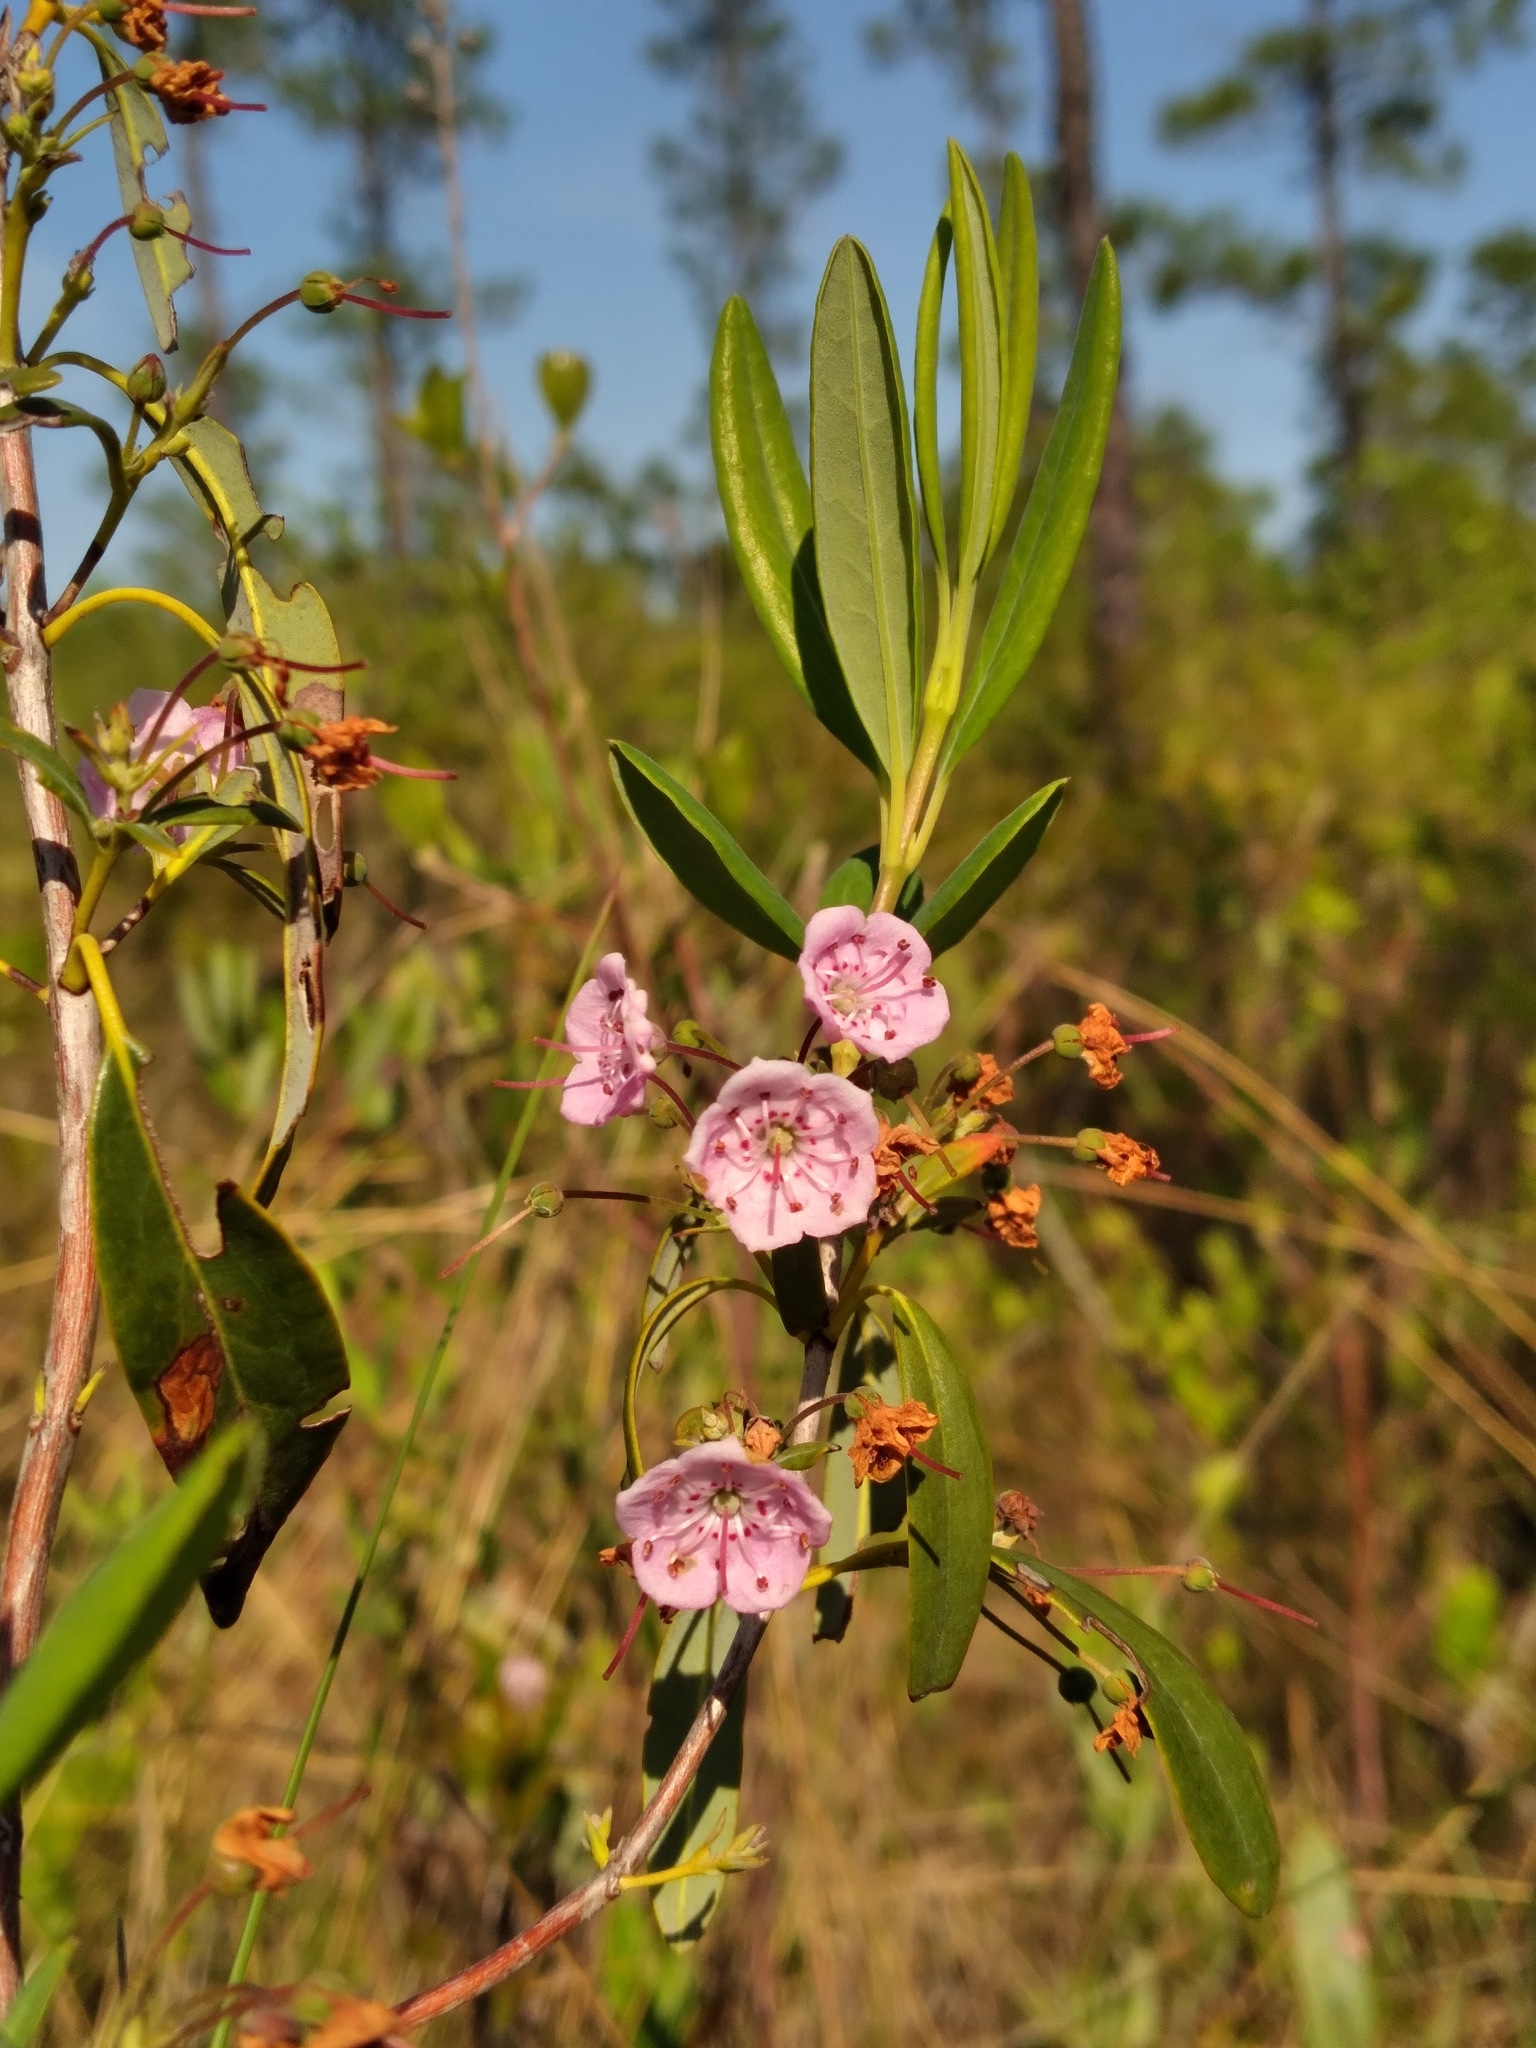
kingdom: Plantae
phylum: Tracheophyta
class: Magnoliopsida
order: Ericales
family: Ericaceae
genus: Kalmia
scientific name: Kalmia angustifolia
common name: Sheep-laurel
